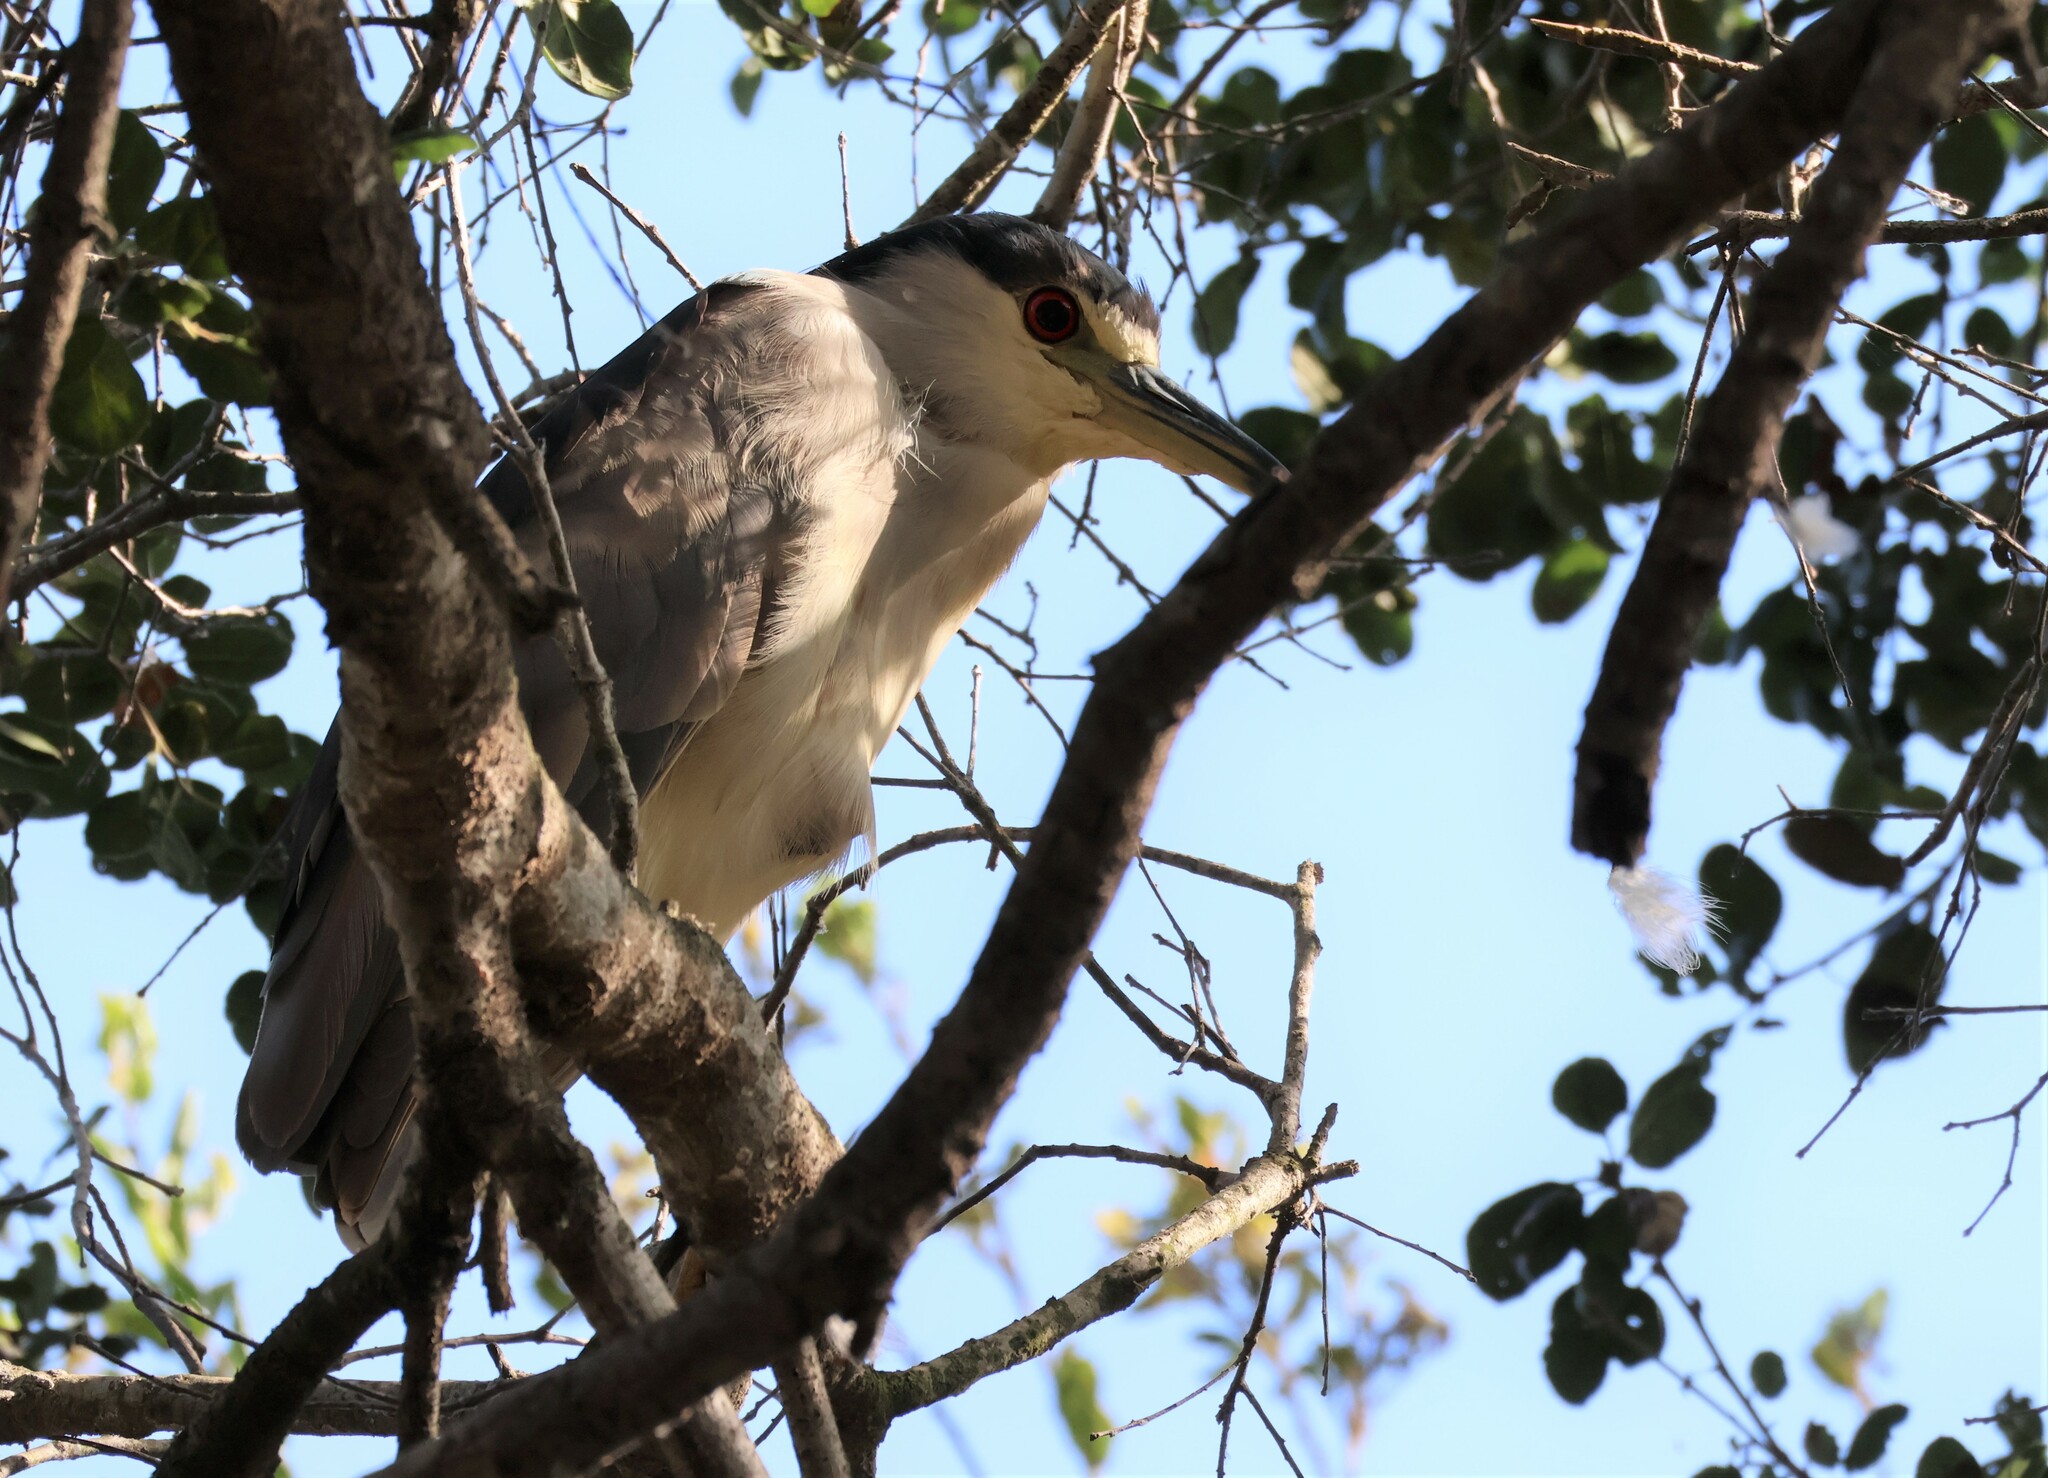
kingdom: Animalia
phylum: Chordata
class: Aves
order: Pelecaniformes
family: Ardeidae
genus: Nycticorax
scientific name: Nycticorax nycticorax
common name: Black-crowned night heron
